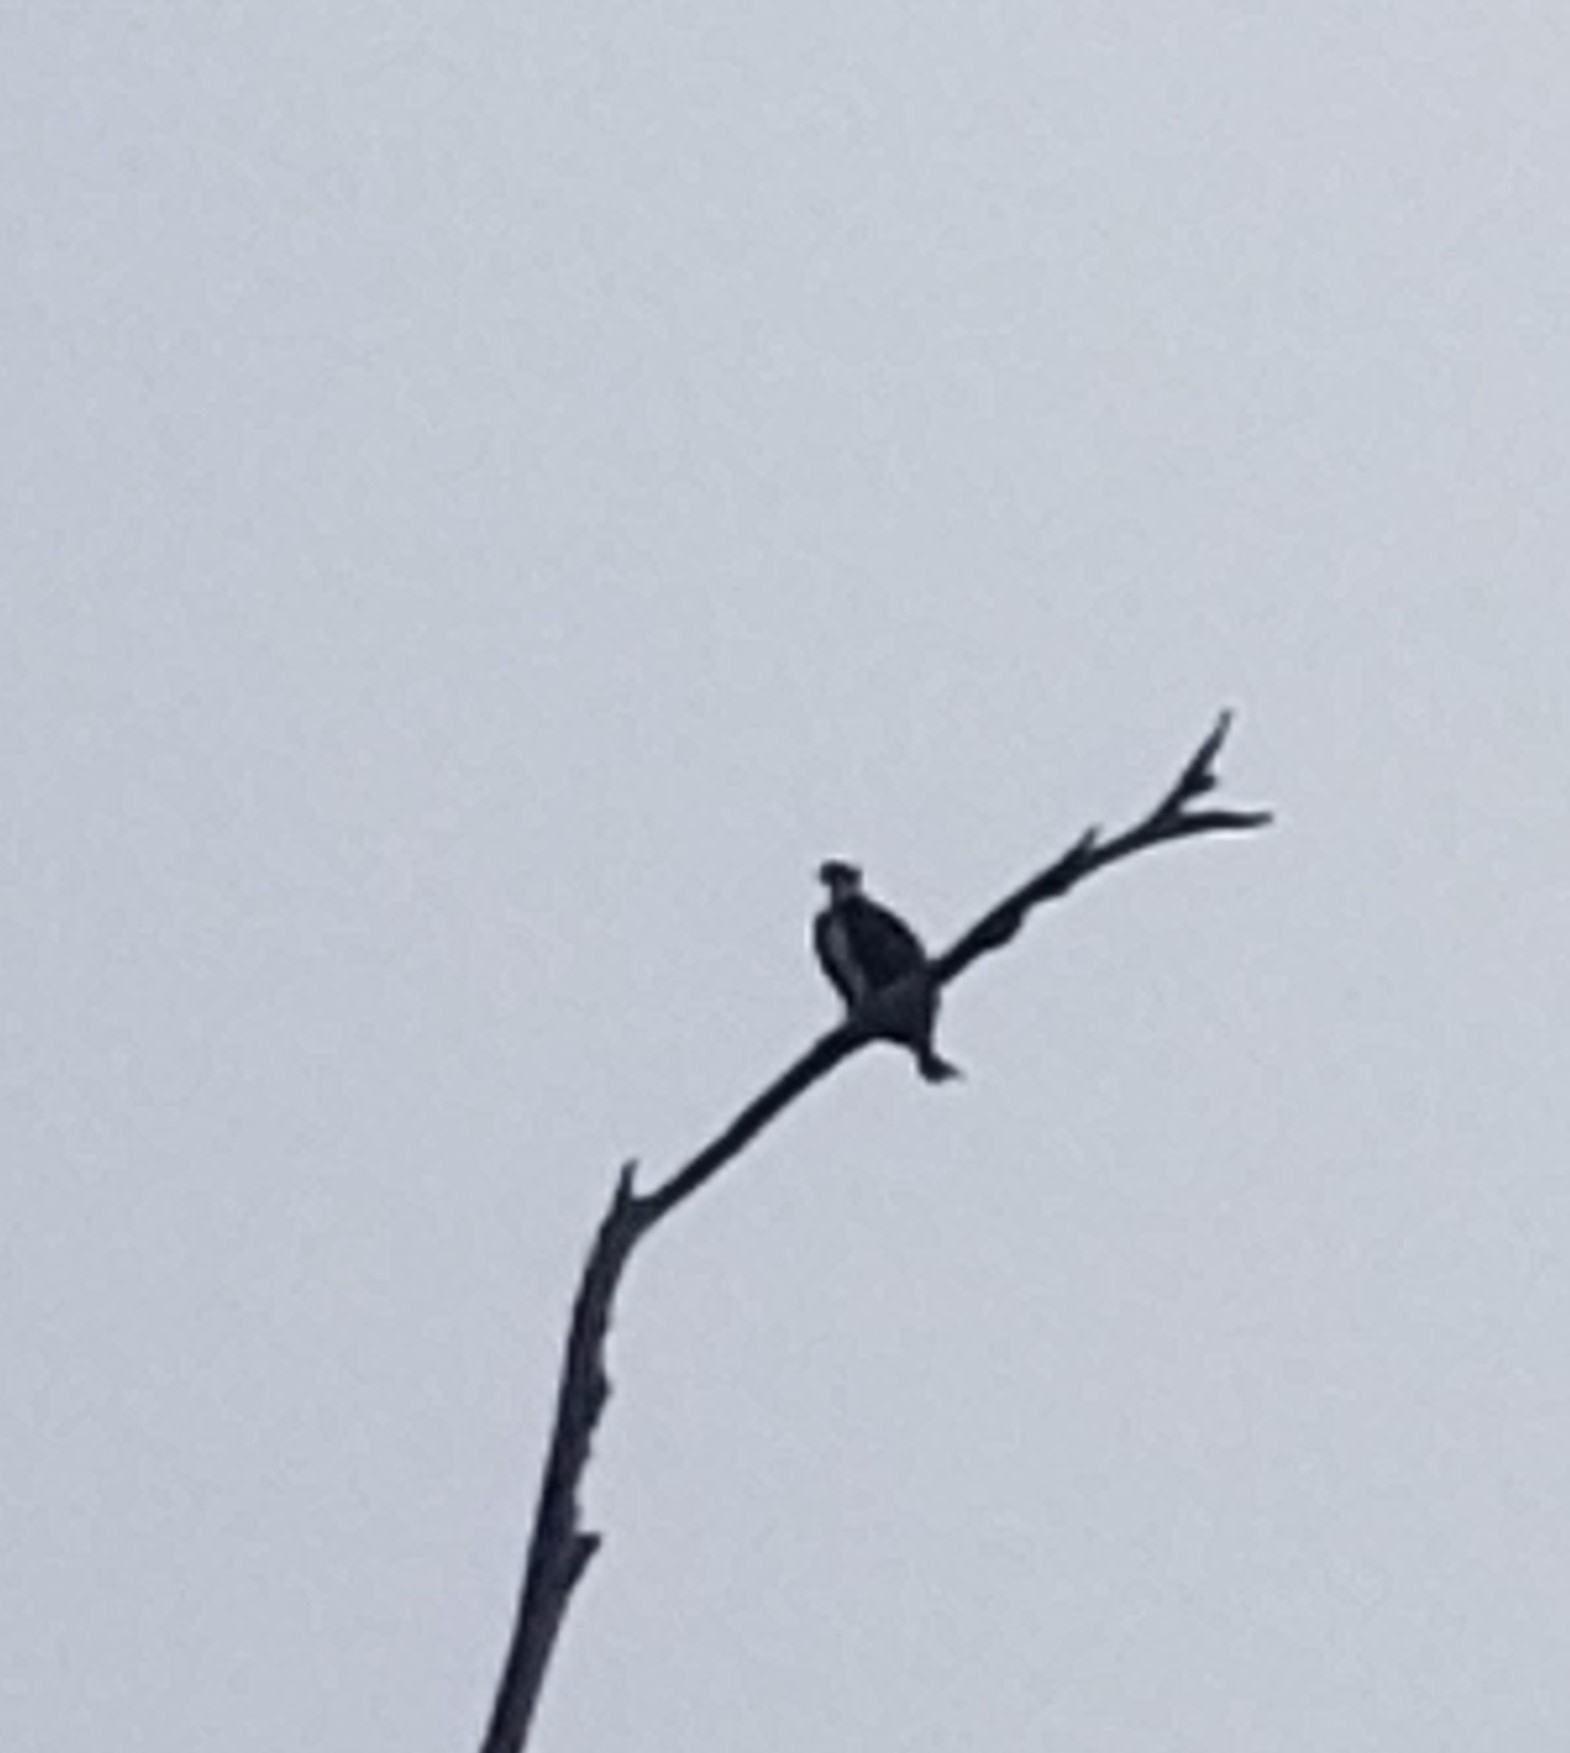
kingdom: Animalia
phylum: Chordata
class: Aves
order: Accipitriformes
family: Pandionidae
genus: Pandion
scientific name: Pandion haliaetus
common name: Osprey
